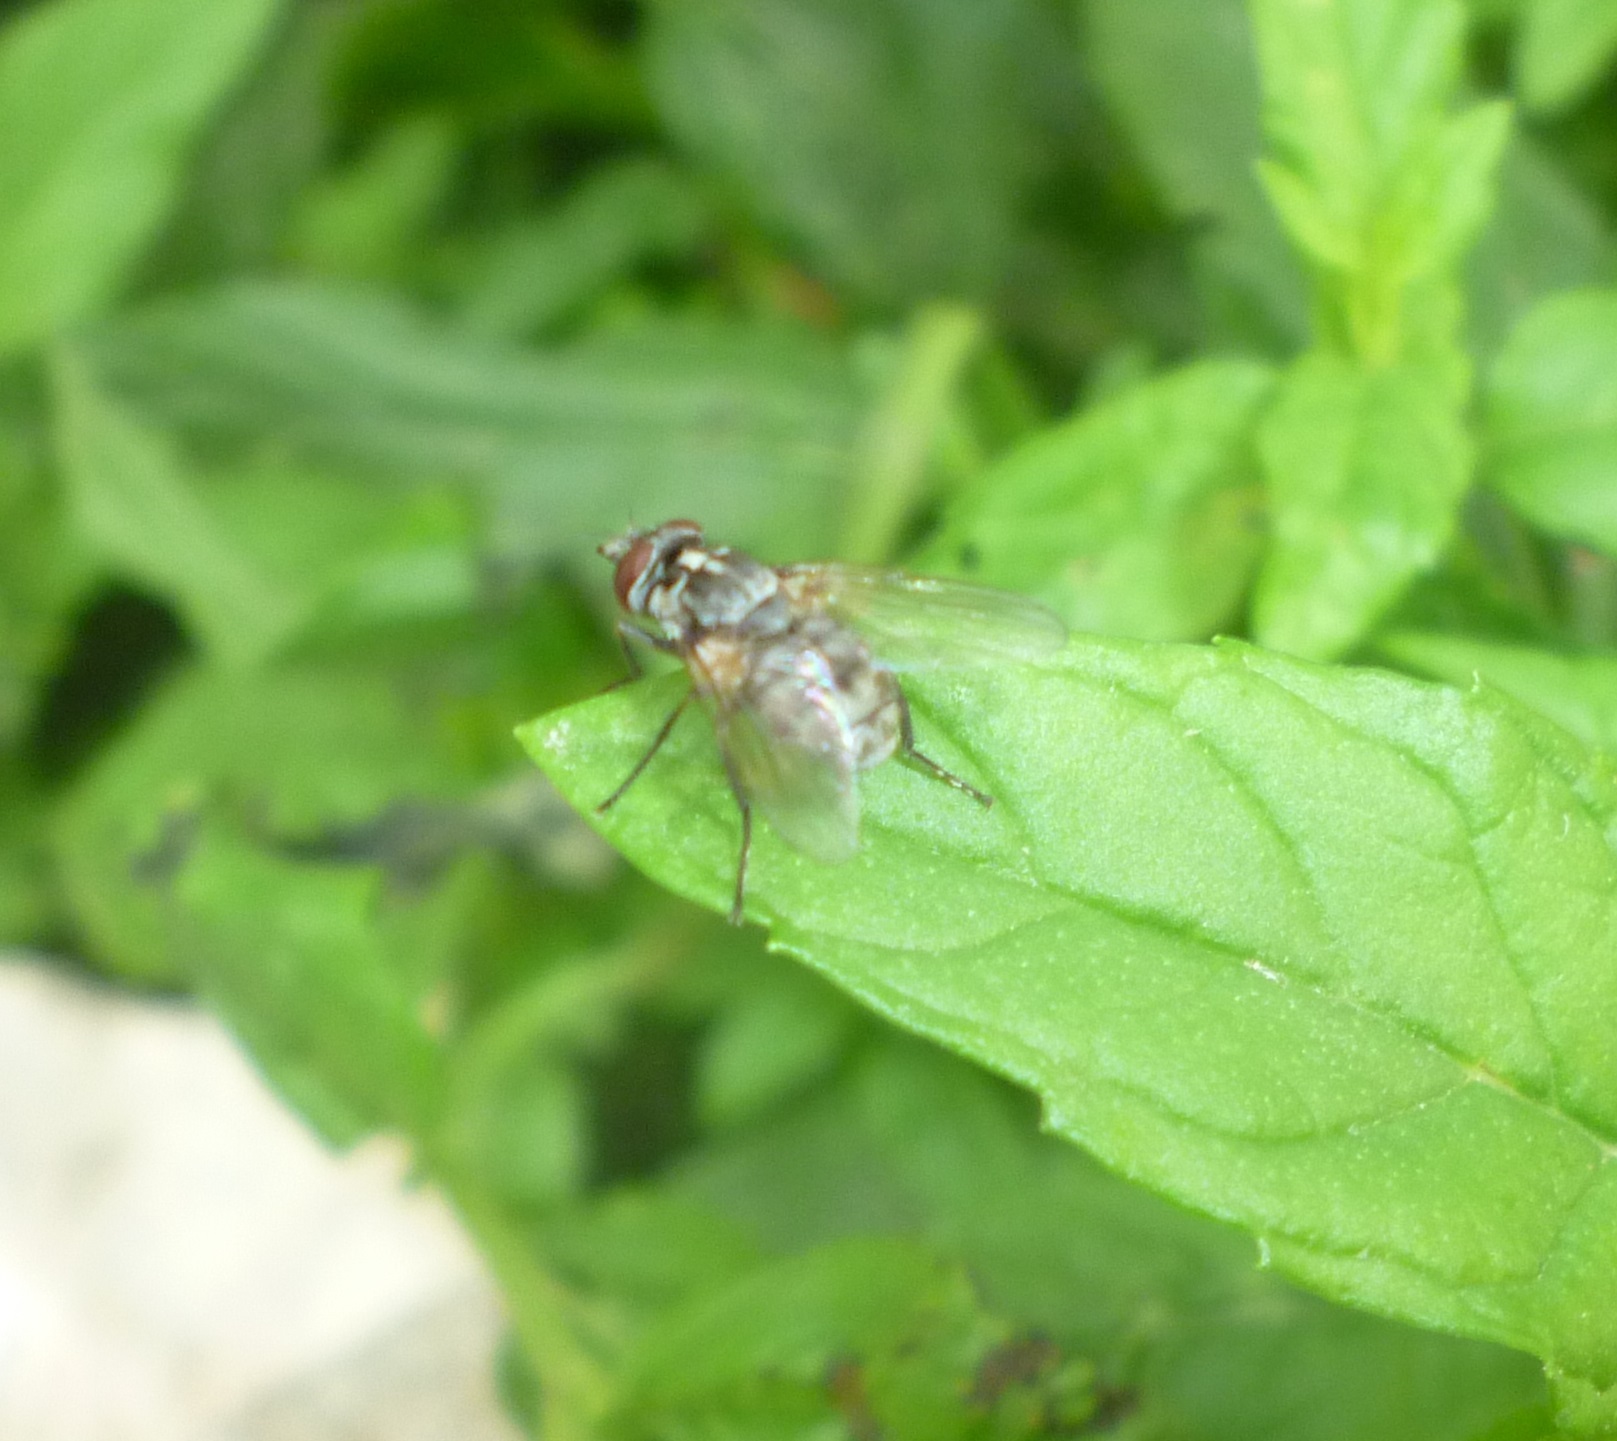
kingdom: Animalia
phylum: Arthropoda
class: Insecta
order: Diptera
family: Muscidae
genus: Stomoxys
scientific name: Stomoxys calcitrans
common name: Stable fly
